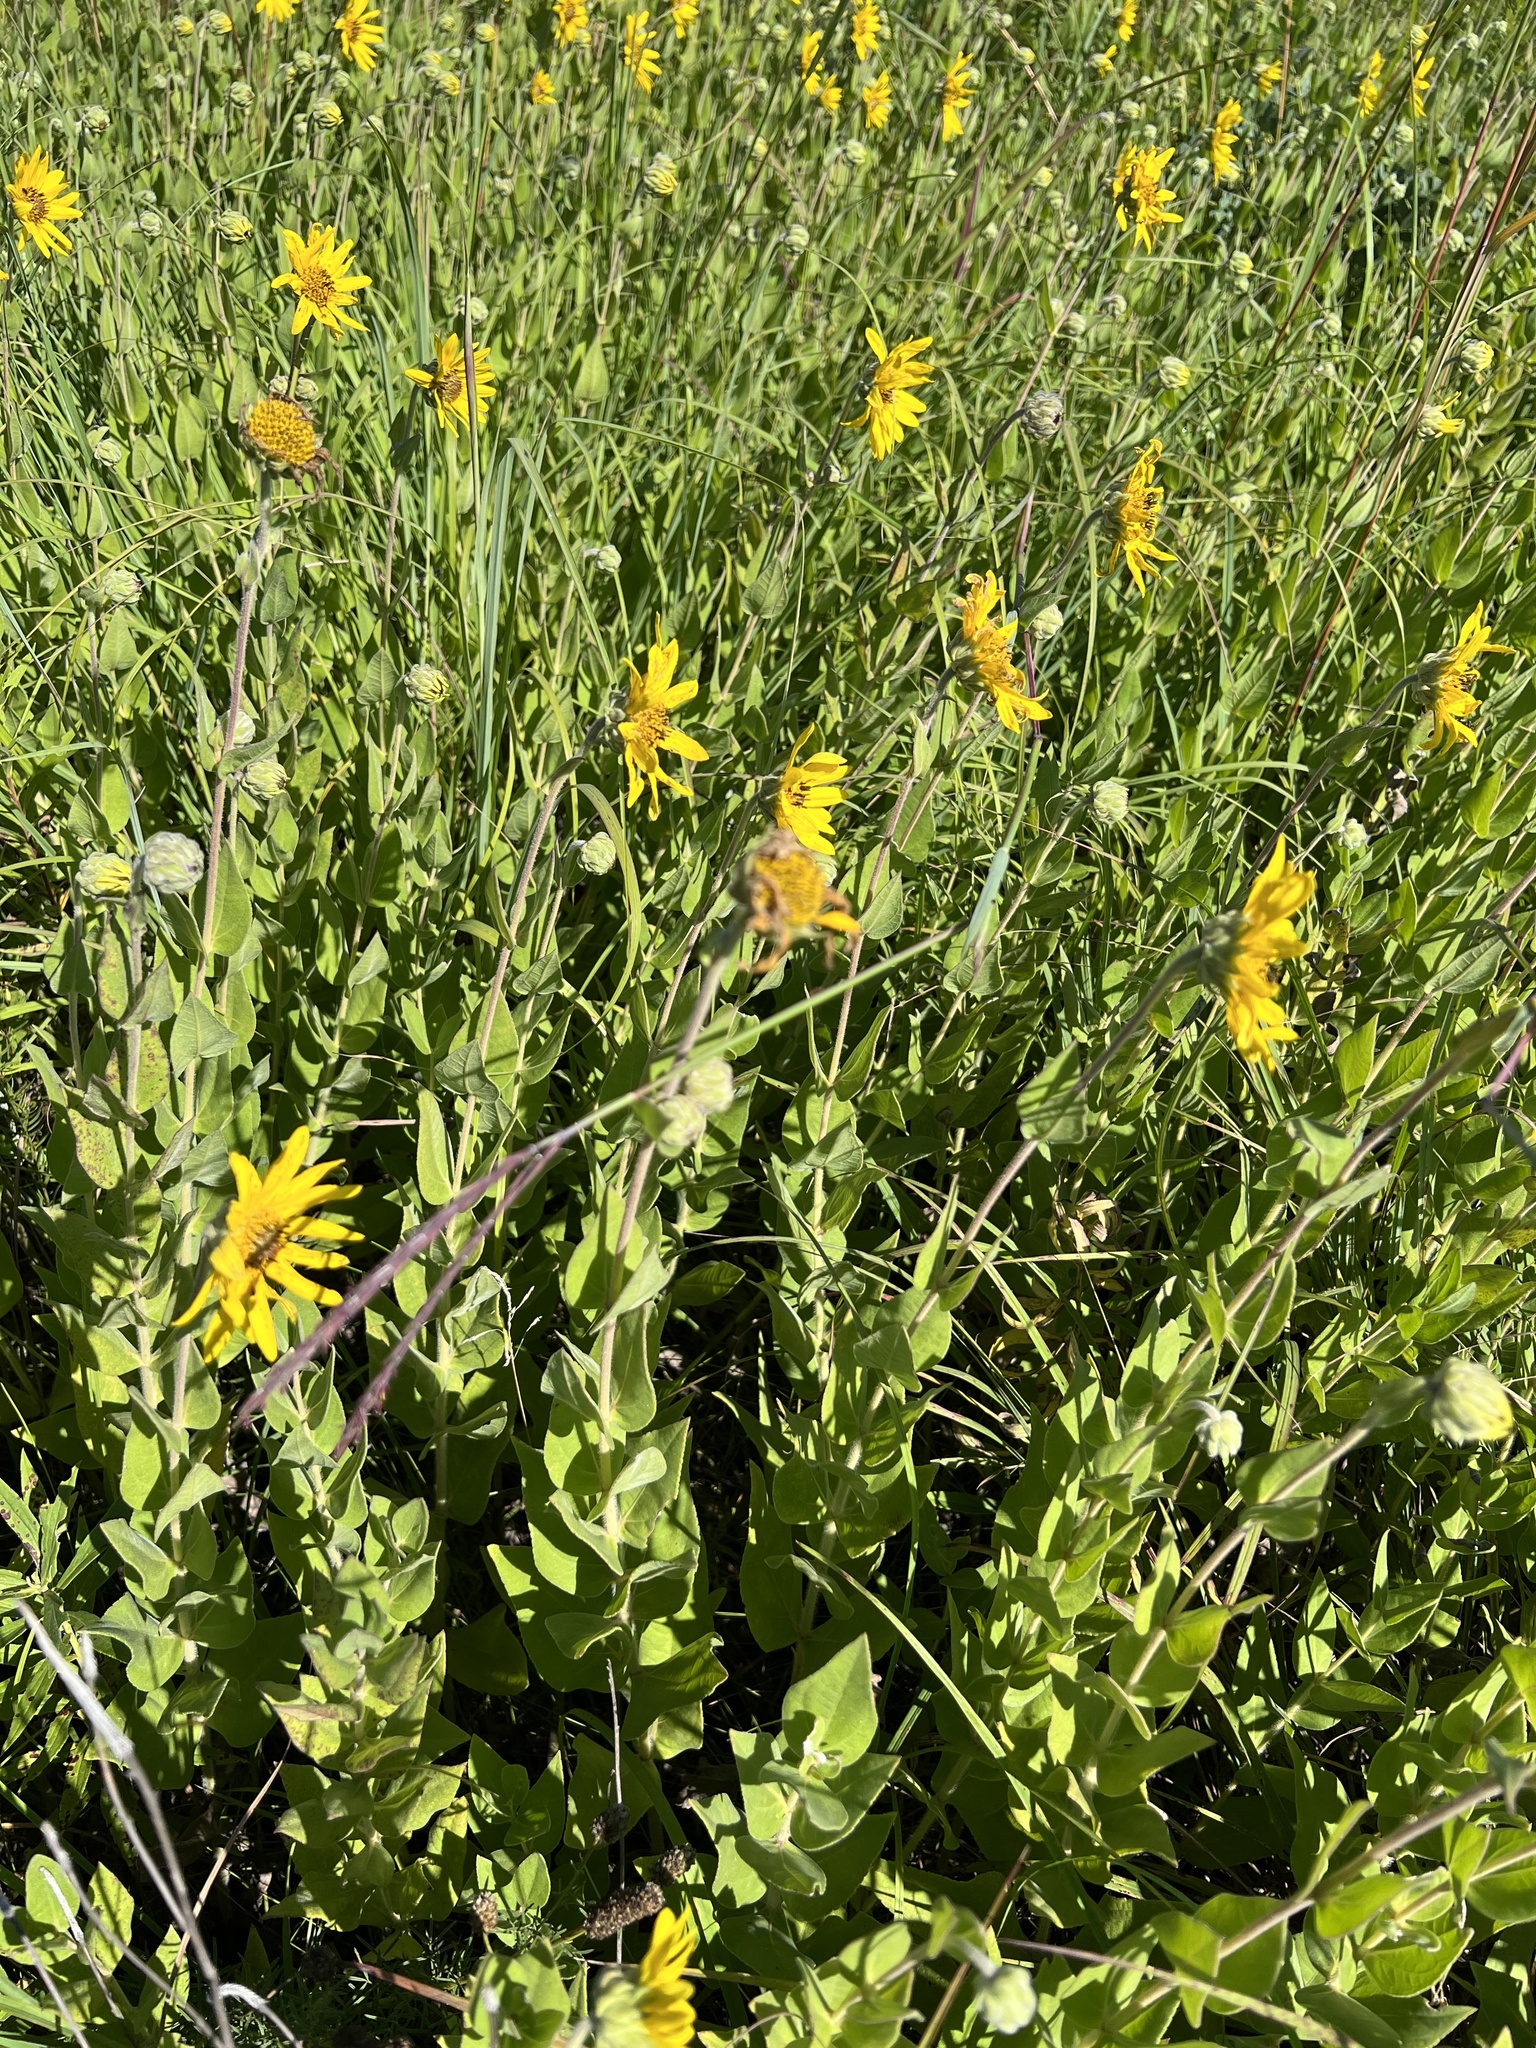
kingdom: Plantae
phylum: Tracheophyta
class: Magnoliopsida
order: Asterales
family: Asteraceae
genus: Helianthus
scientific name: Helianthus mollis
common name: Ashy sunflower
